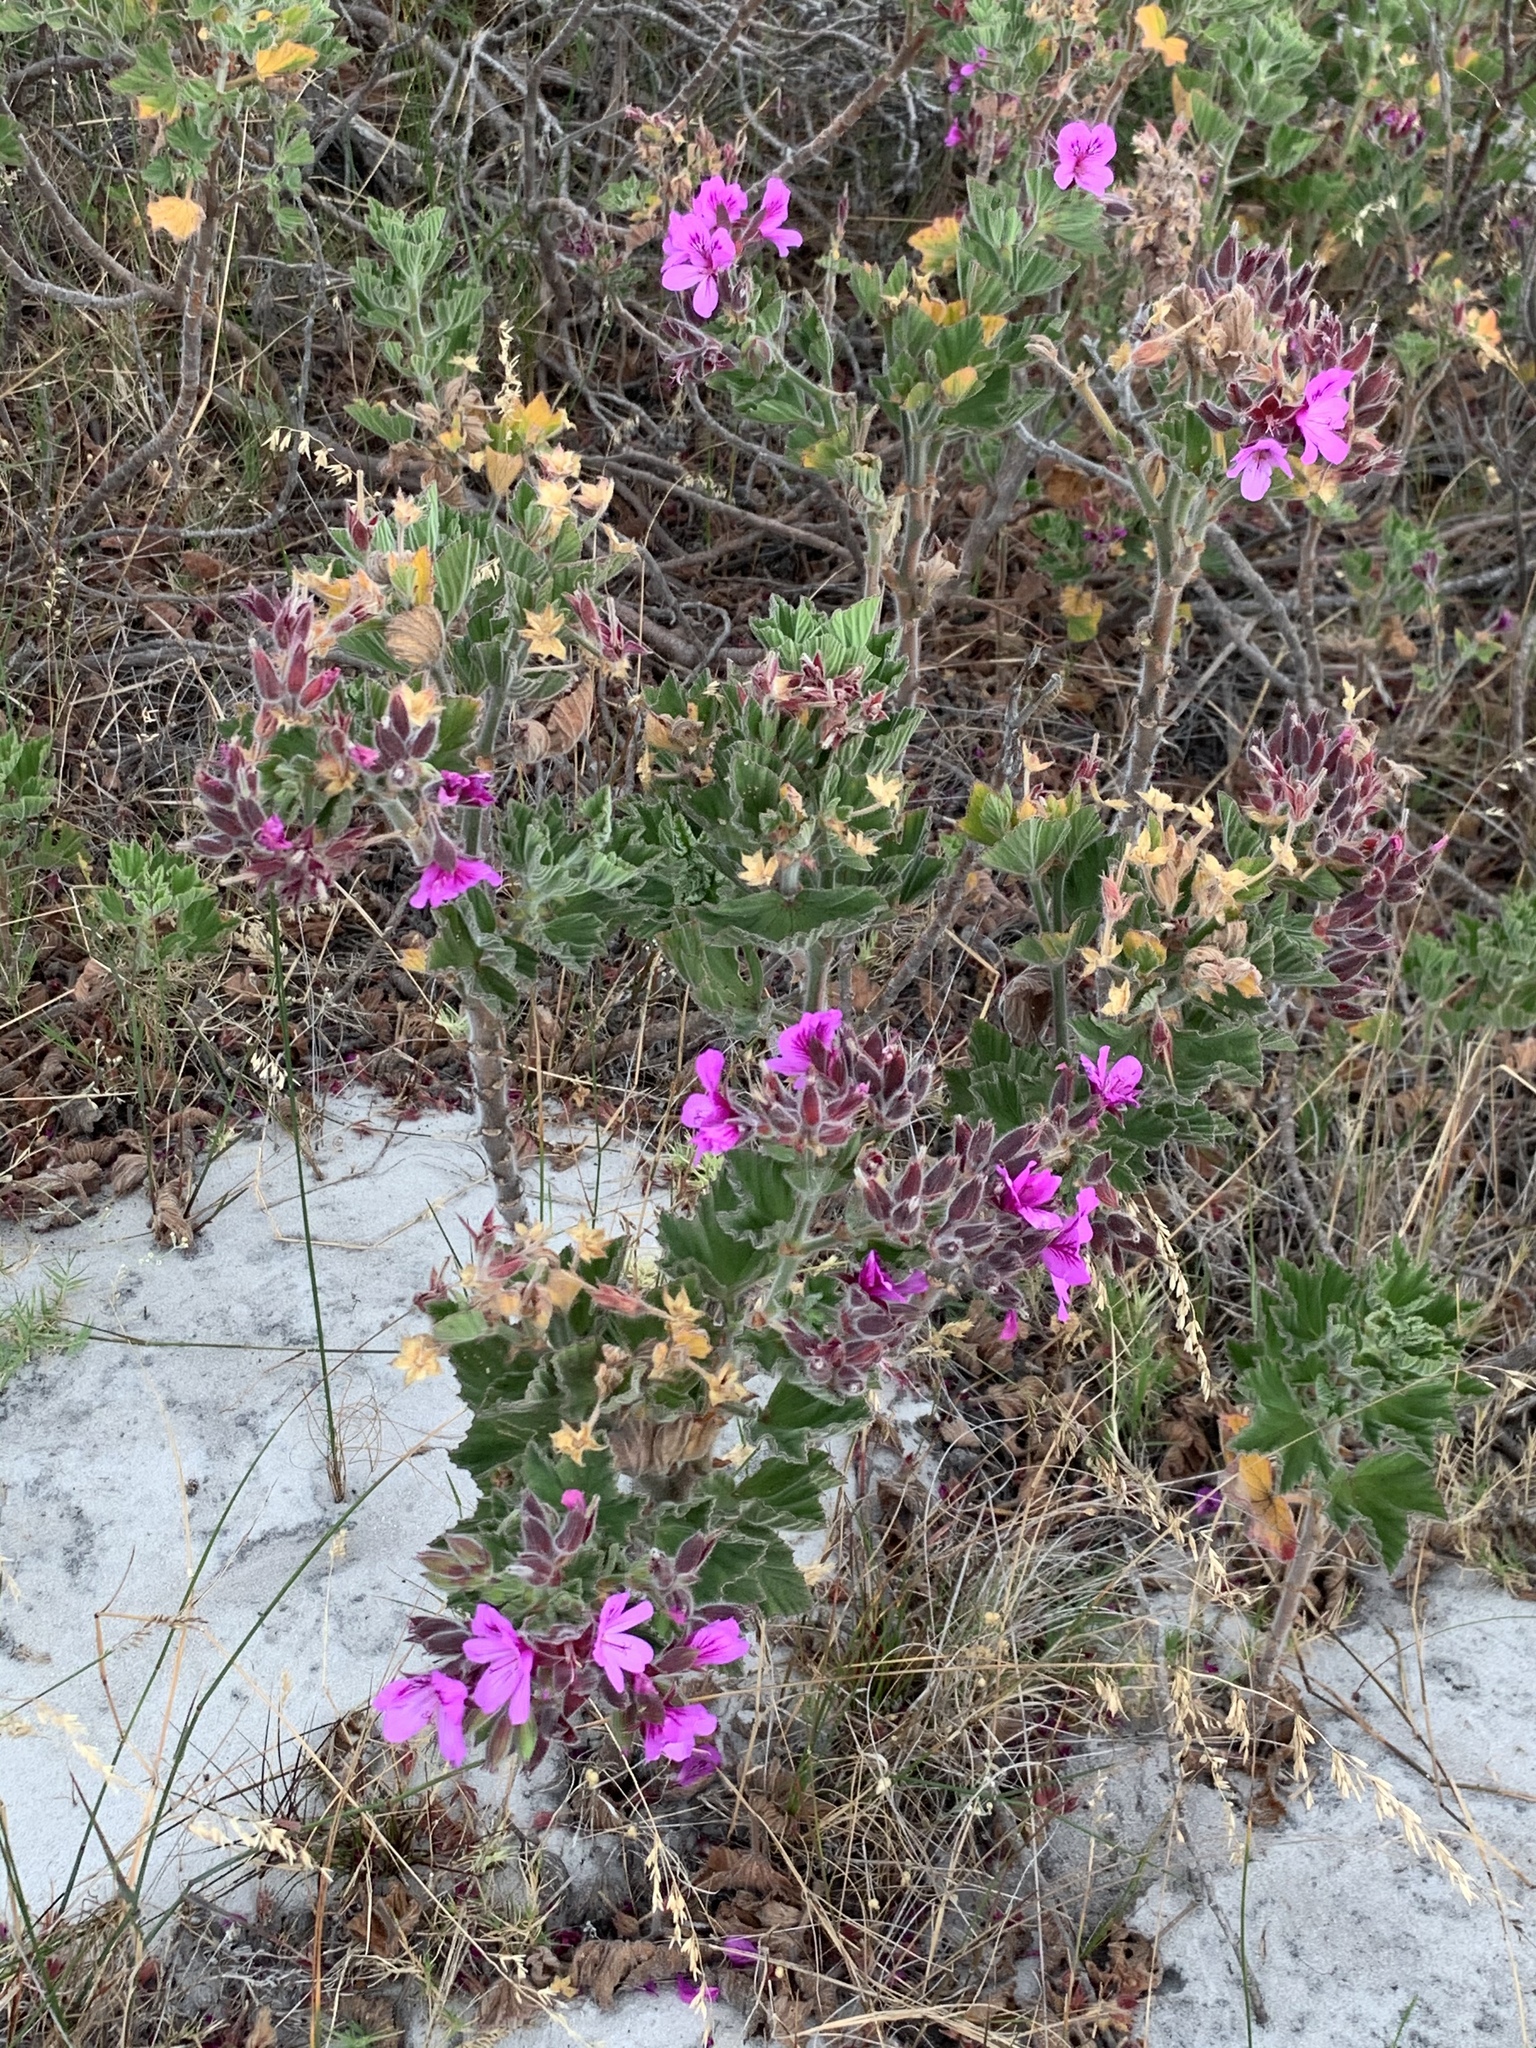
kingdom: Plantae
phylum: Tracheophyta
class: Magnoliopsida
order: Geraniales
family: Geraniaceae
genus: Pelargonium
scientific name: Pelargonium cucullatum
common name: Tree pelargonium
